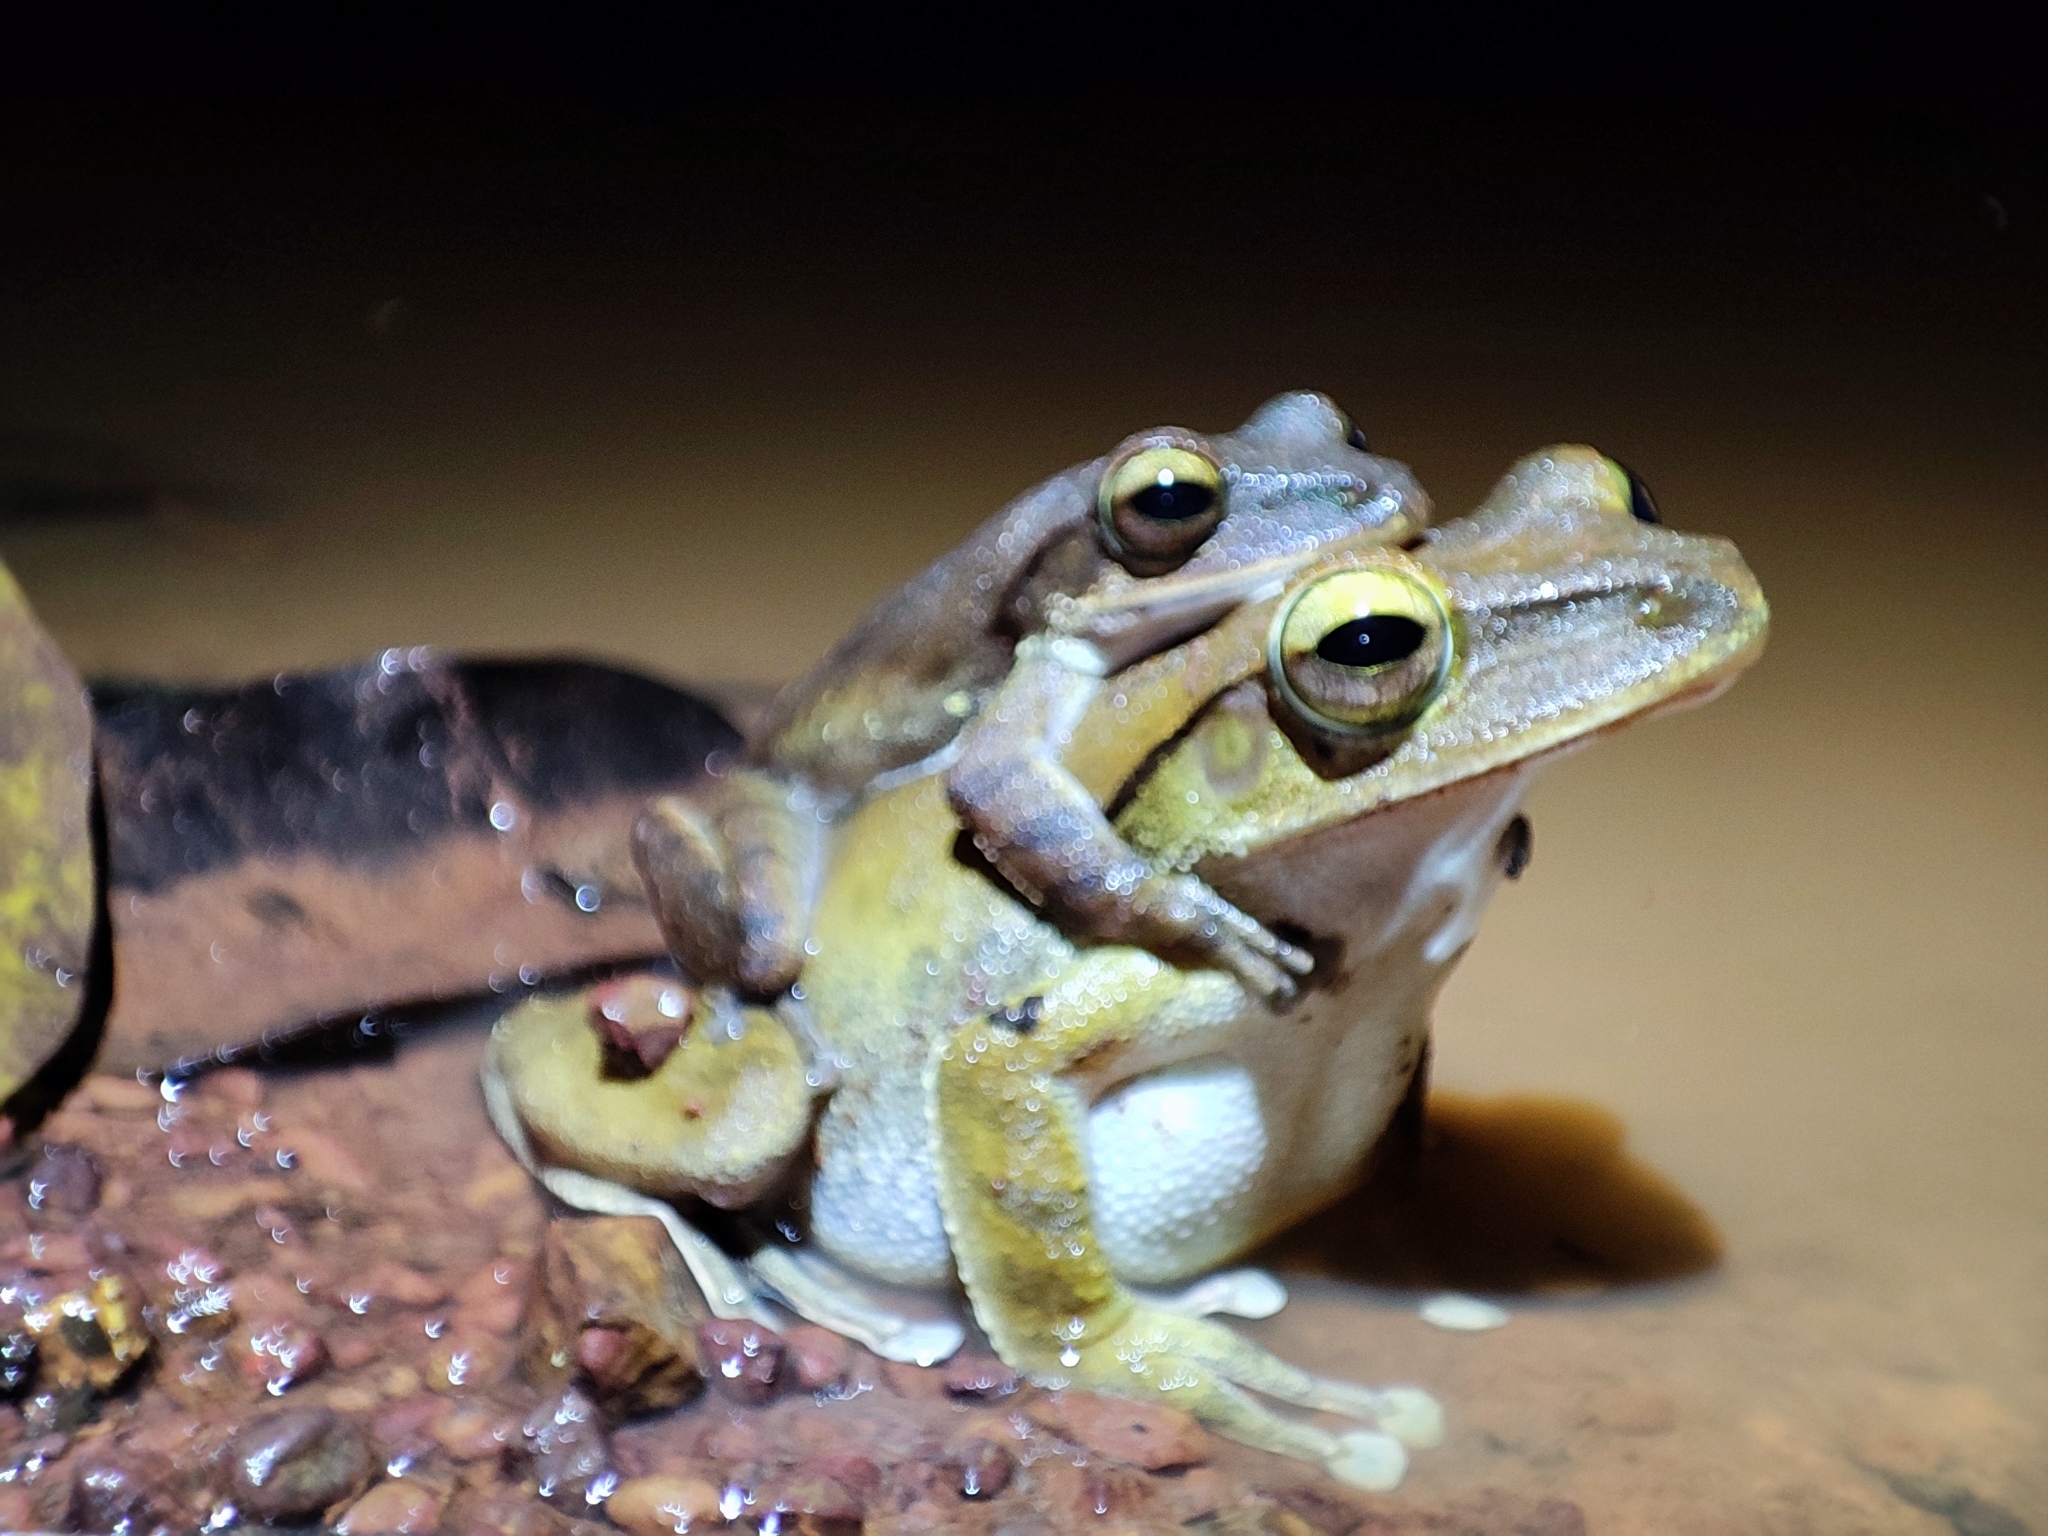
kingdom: Animalia
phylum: Chordata
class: Amphibia
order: Anura
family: Rhacophoridae
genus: Polypedates
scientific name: Polypedates megacephalus
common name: Hong kong whipping frog
